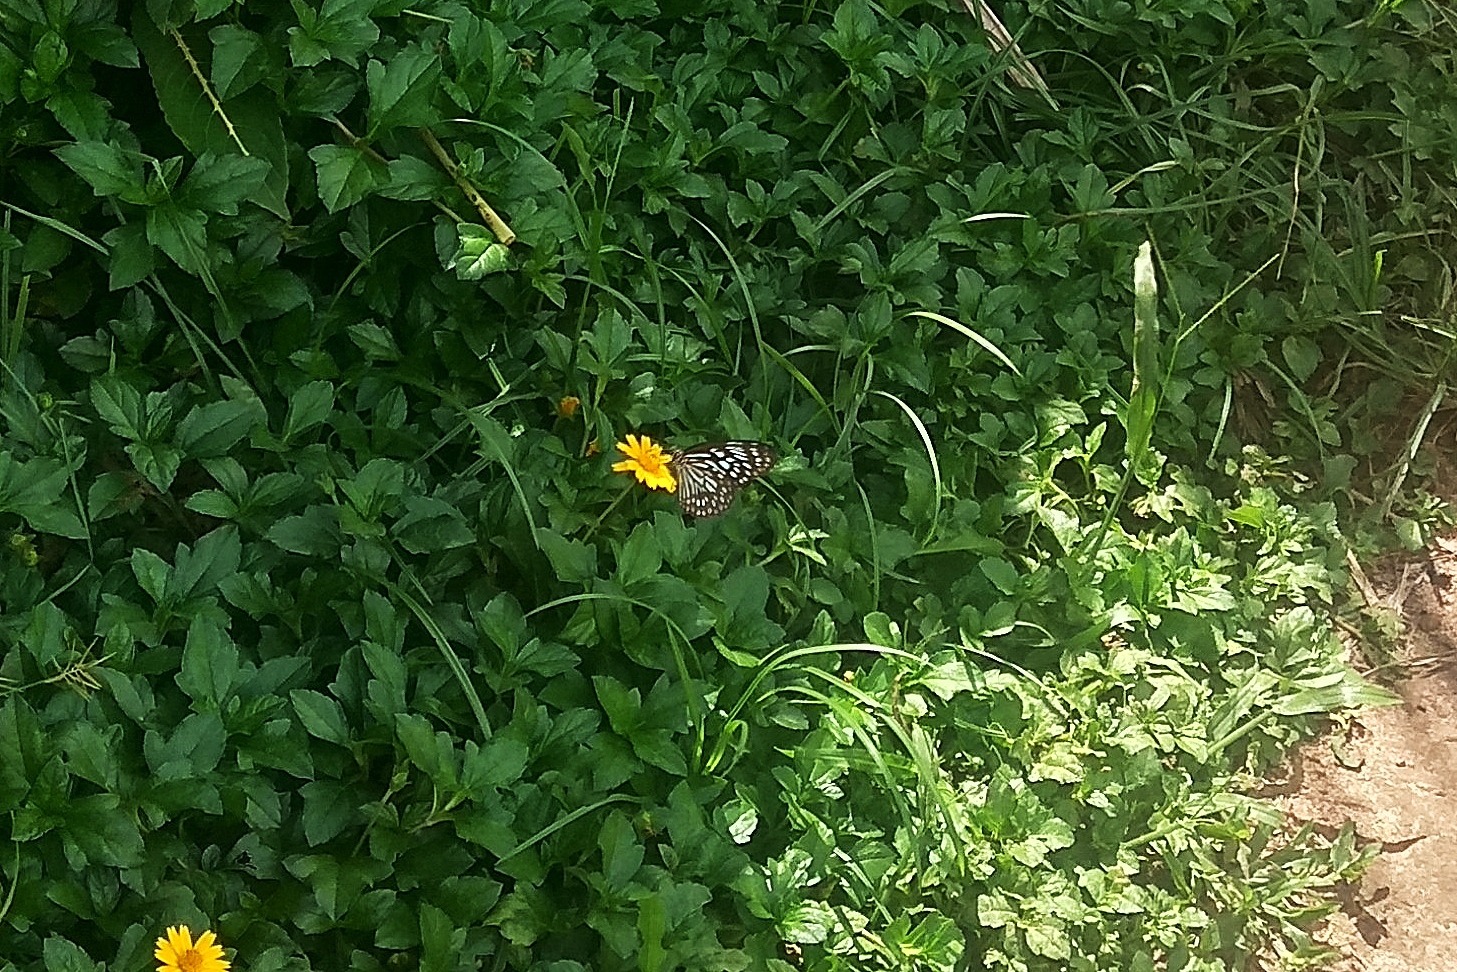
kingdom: Animalia
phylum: Arthropoda
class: Insecta
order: Lepidoptera
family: Nymphalidae
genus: Tirumala
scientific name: Tirumala limniace
